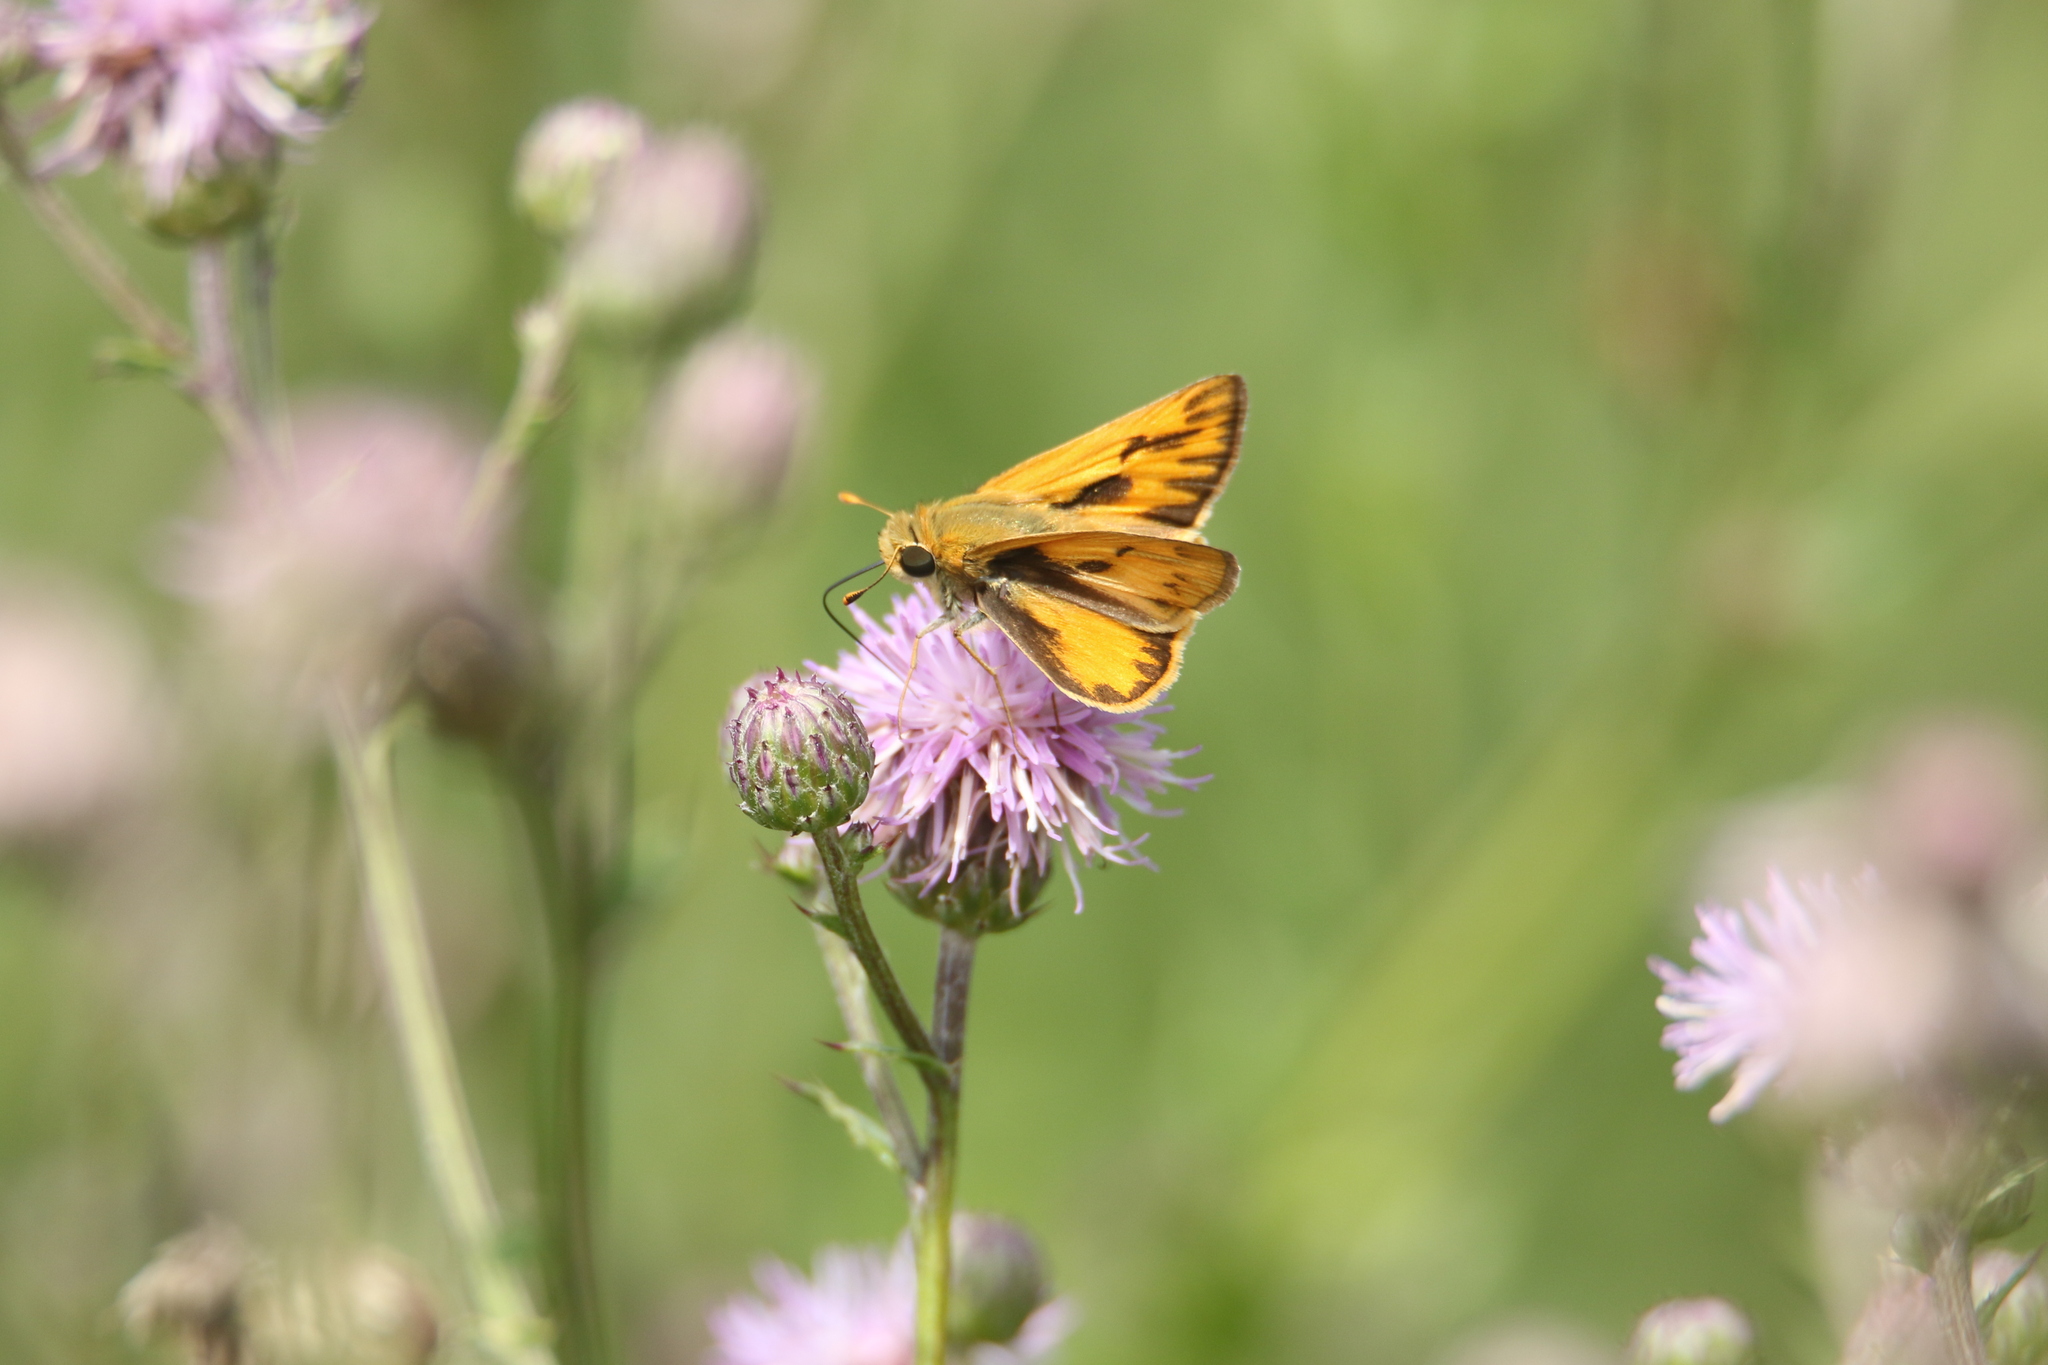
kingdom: Animalia
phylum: Arthropoda
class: Insecta
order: Lepidoptera
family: Hesperiidae
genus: Hylephila
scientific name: Hylephila phyleus
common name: Fiery skipper
